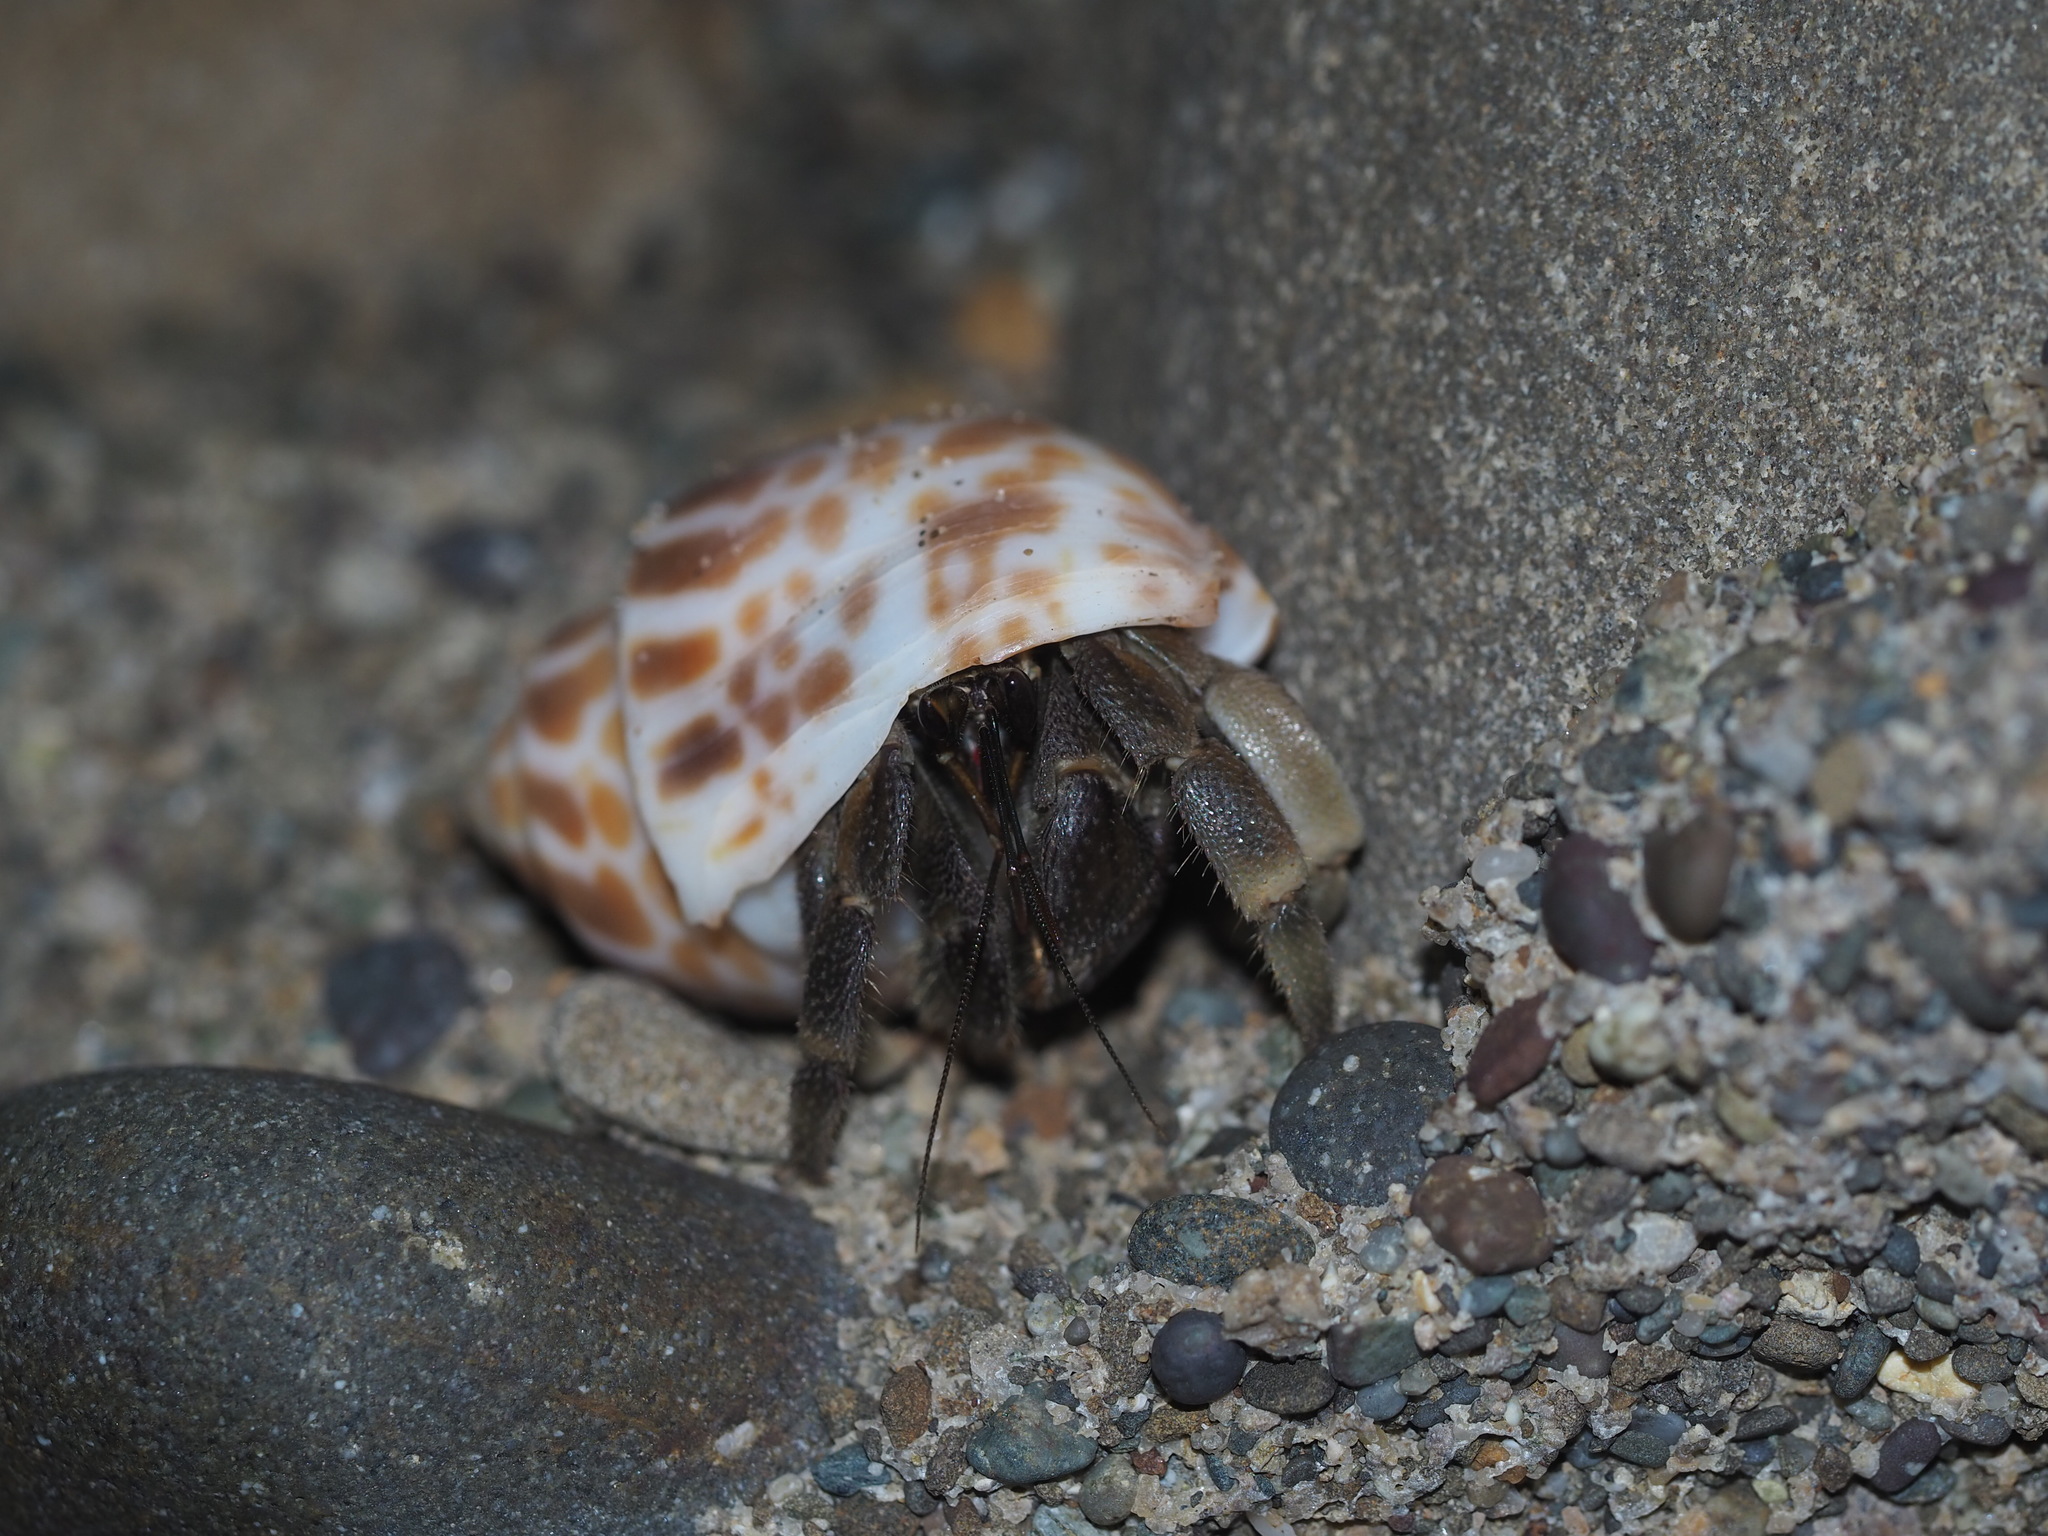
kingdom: Animalia
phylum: Arthropoda
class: Malacostraca
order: Decapoda
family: Coenobitidae
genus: Coenobita
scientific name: Coenobita rugosus
